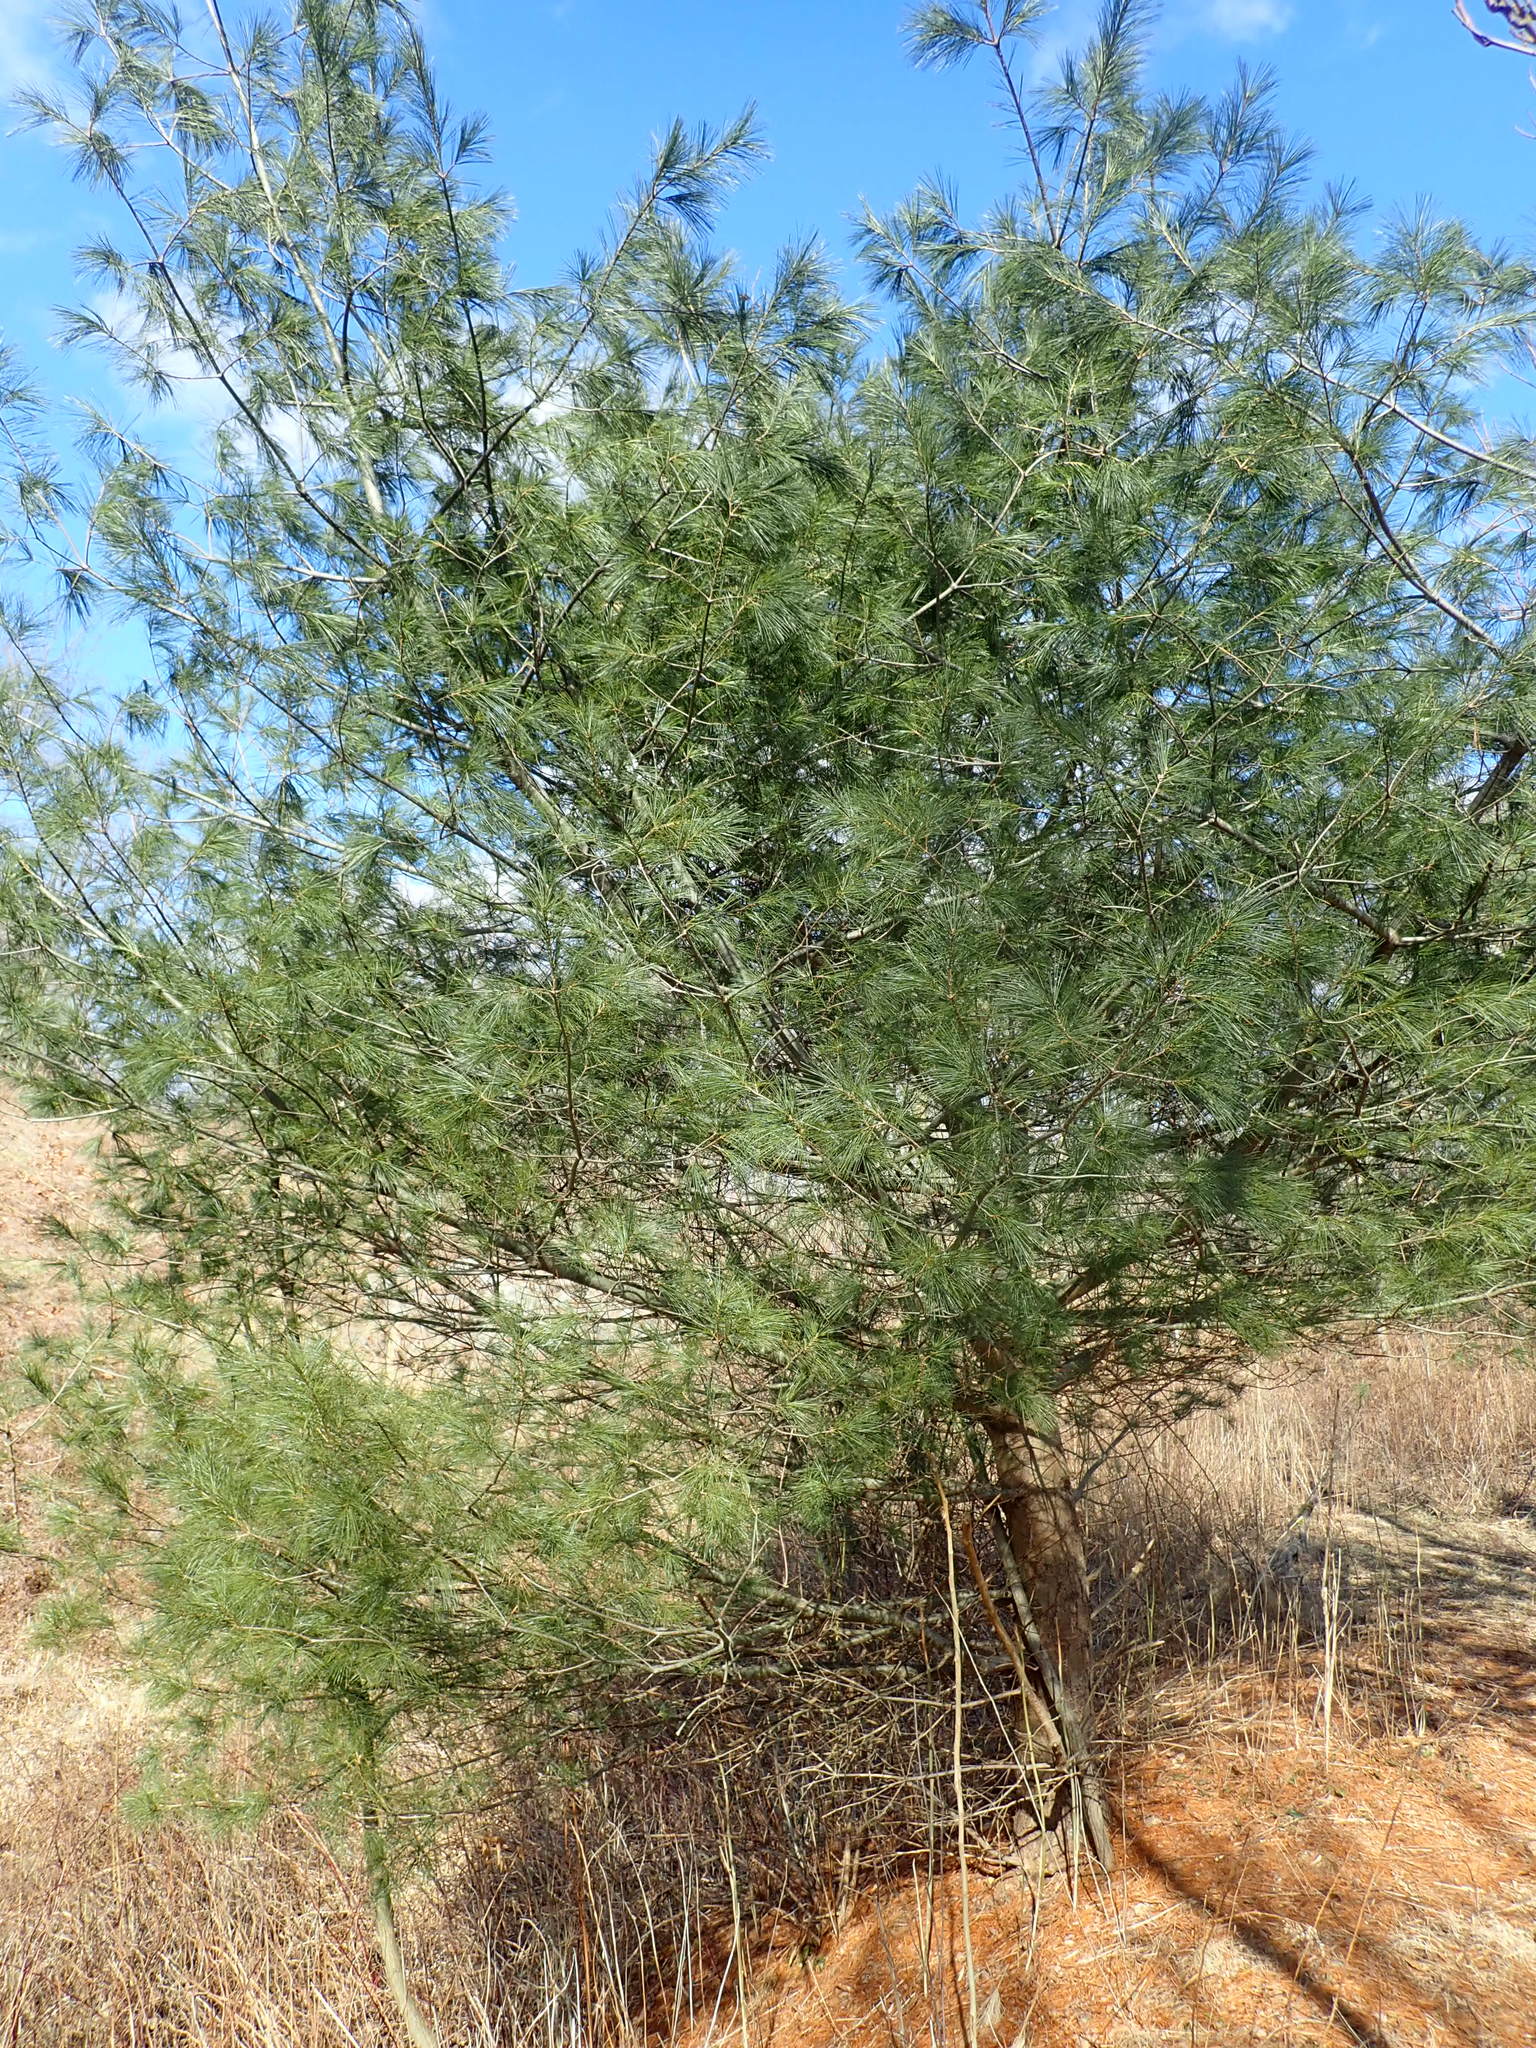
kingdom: Plantae
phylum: Tracheophyta
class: Pinopsida
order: Pinales
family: Pinaceae
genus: Pinus
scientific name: Pinus strobus
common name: Weymouth pine
